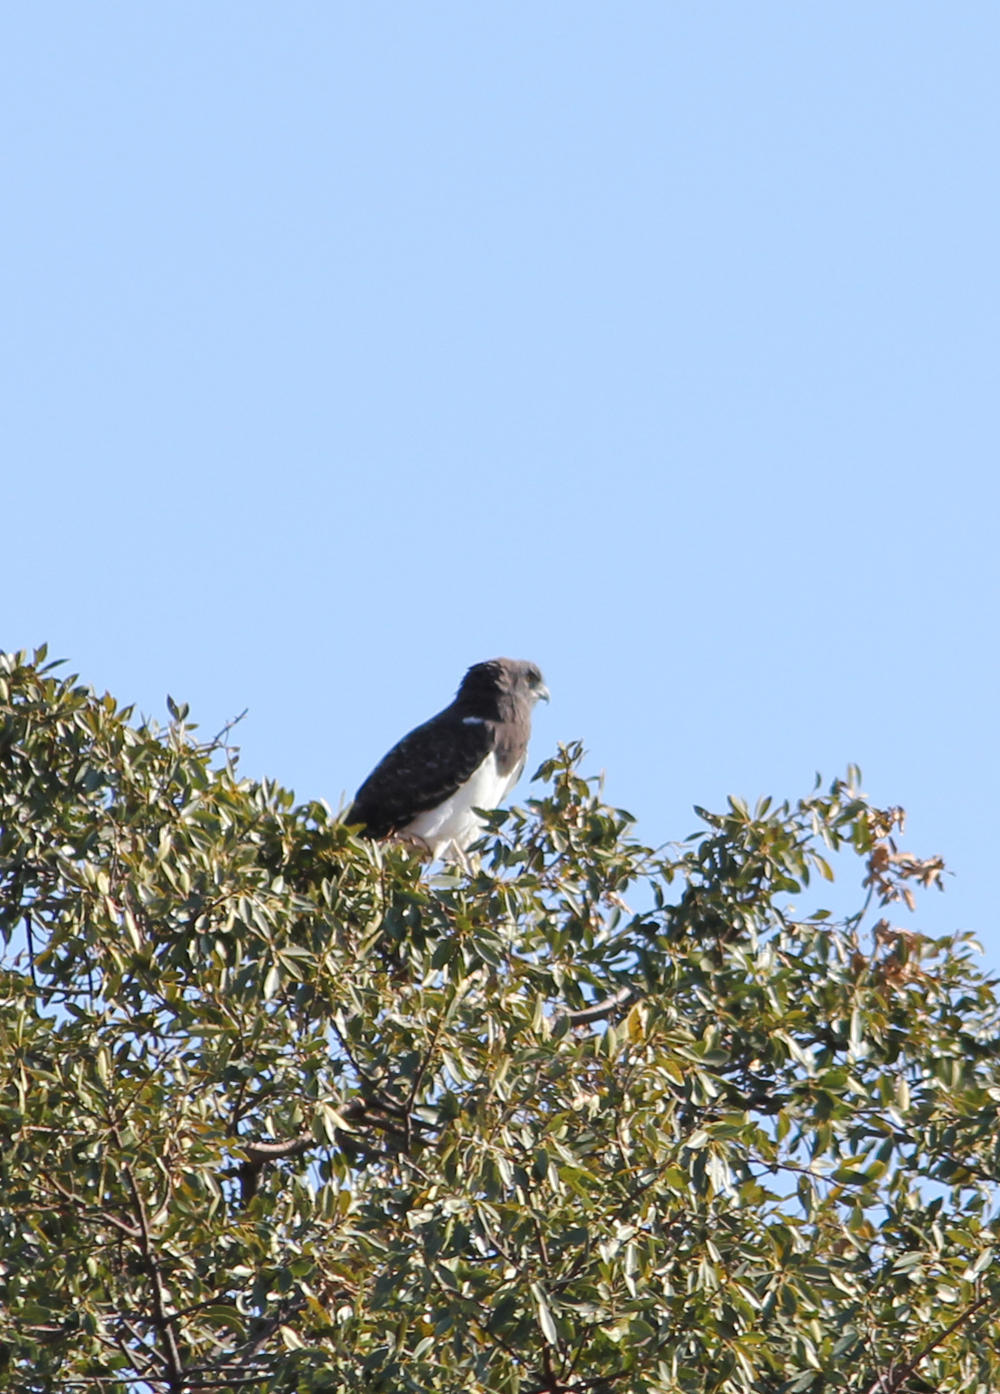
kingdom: Animalia
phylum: Chordata
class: Aves
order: Accipitriformes
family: Accipitridae
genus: Circaetus
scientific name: Circaetus pectoralis
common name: Black-chested snake eagle
